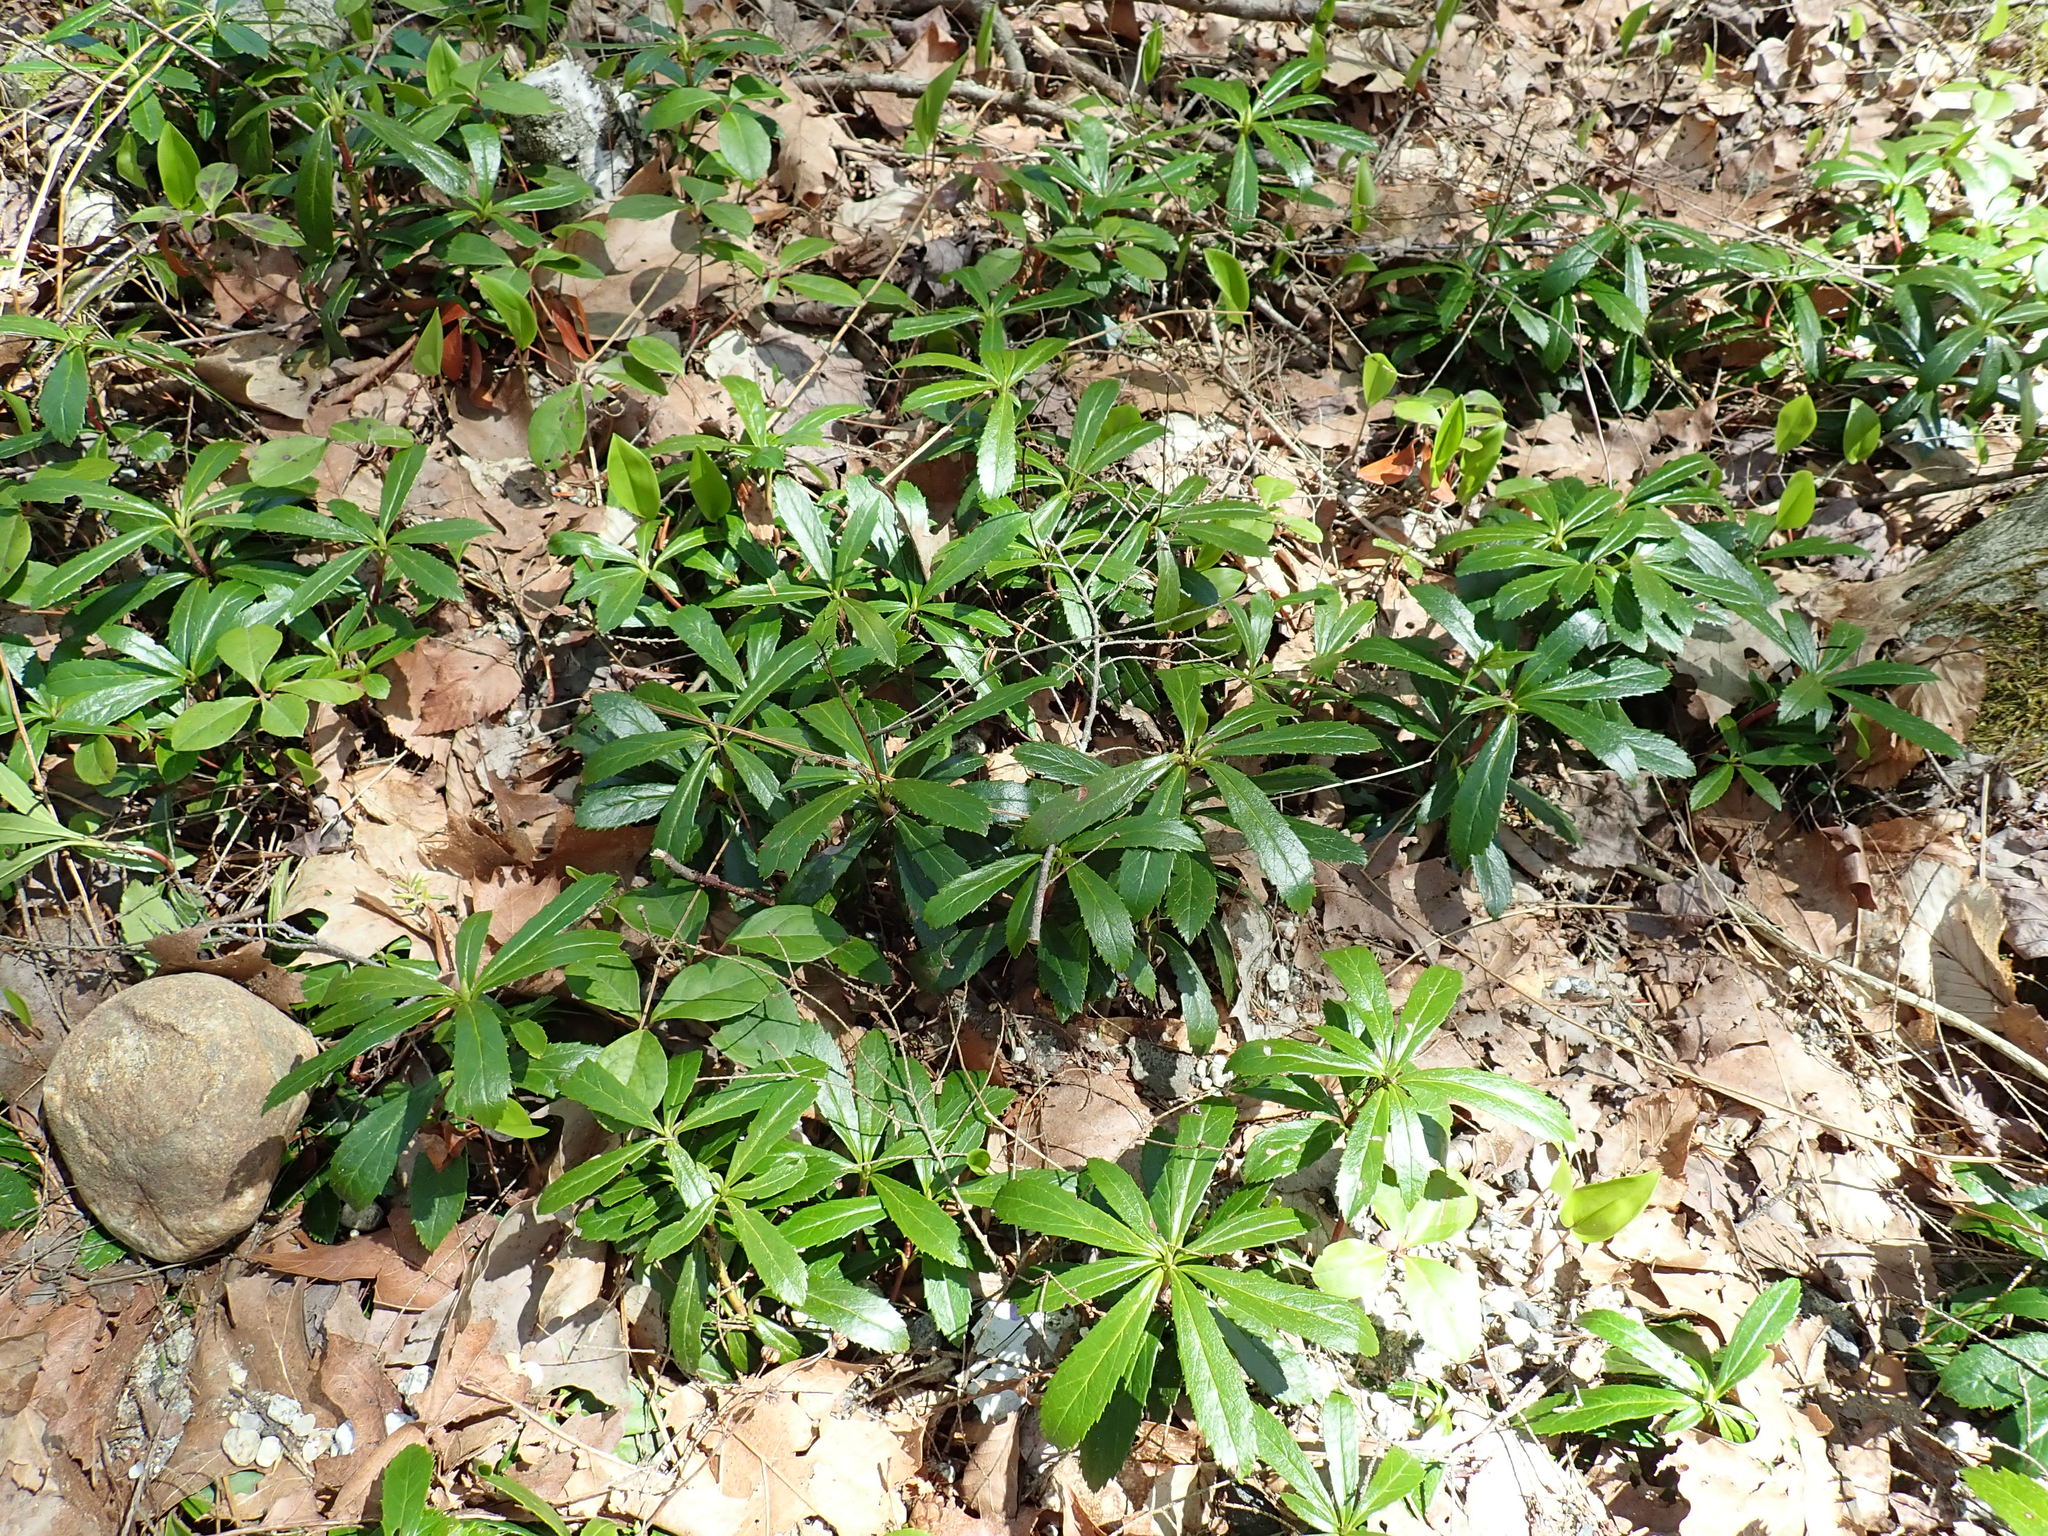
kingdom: Plantae
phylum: Tracheophyta
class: Magnoliopsida
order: Ericales
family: Ericaceae
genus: Chimaphila
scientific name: Chimaphila umbellata
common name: Pipsissewa
